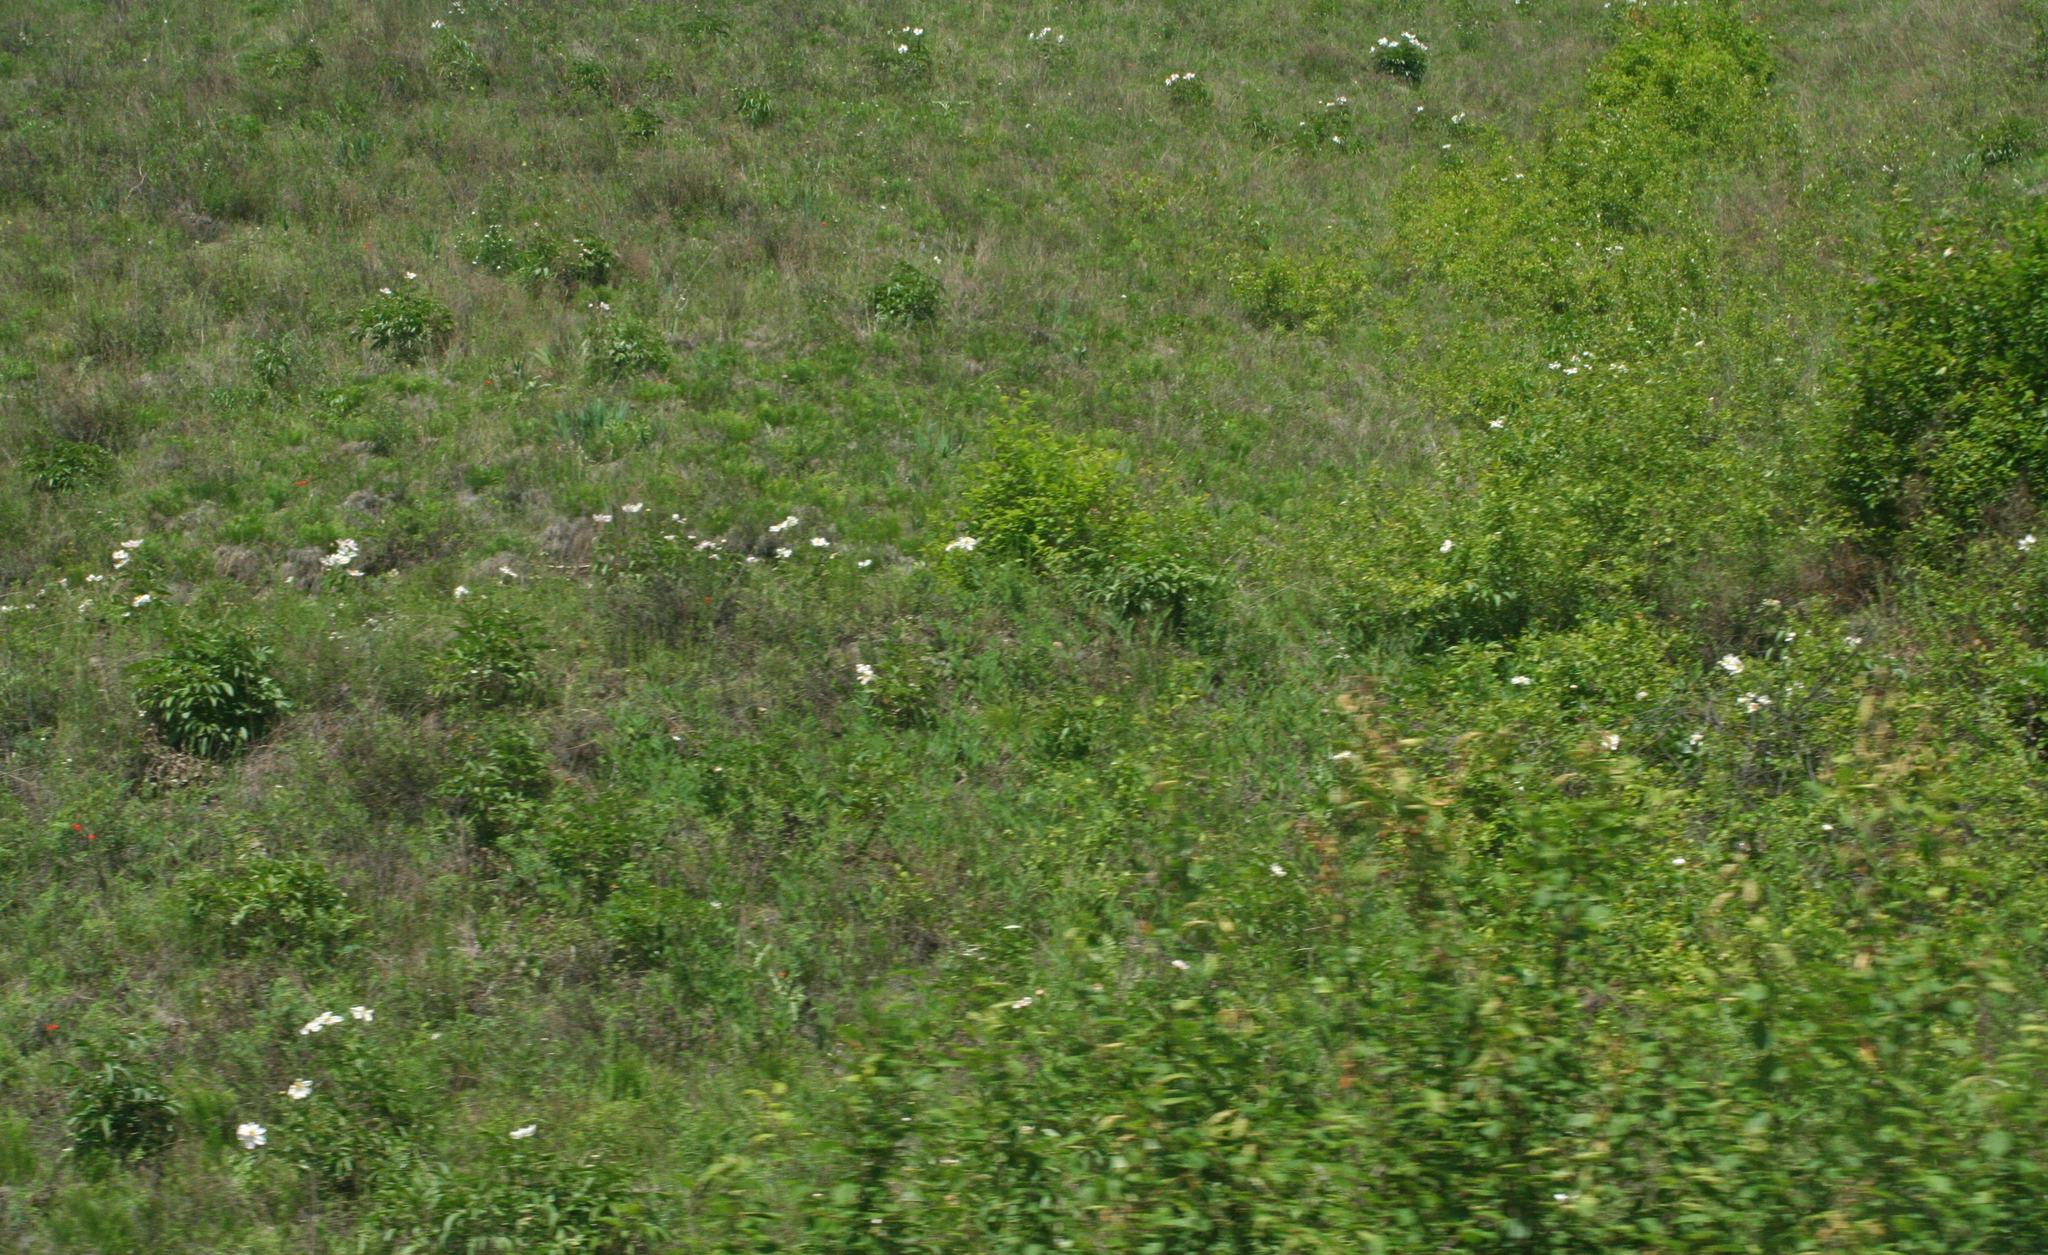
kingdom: Plantae
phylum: Tracheophyta
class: Magnoliopsida
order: Saxifragales
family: Paeoniaceae
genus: Paeonia
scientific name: Paeonia lactiflora
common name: Chinese peony
